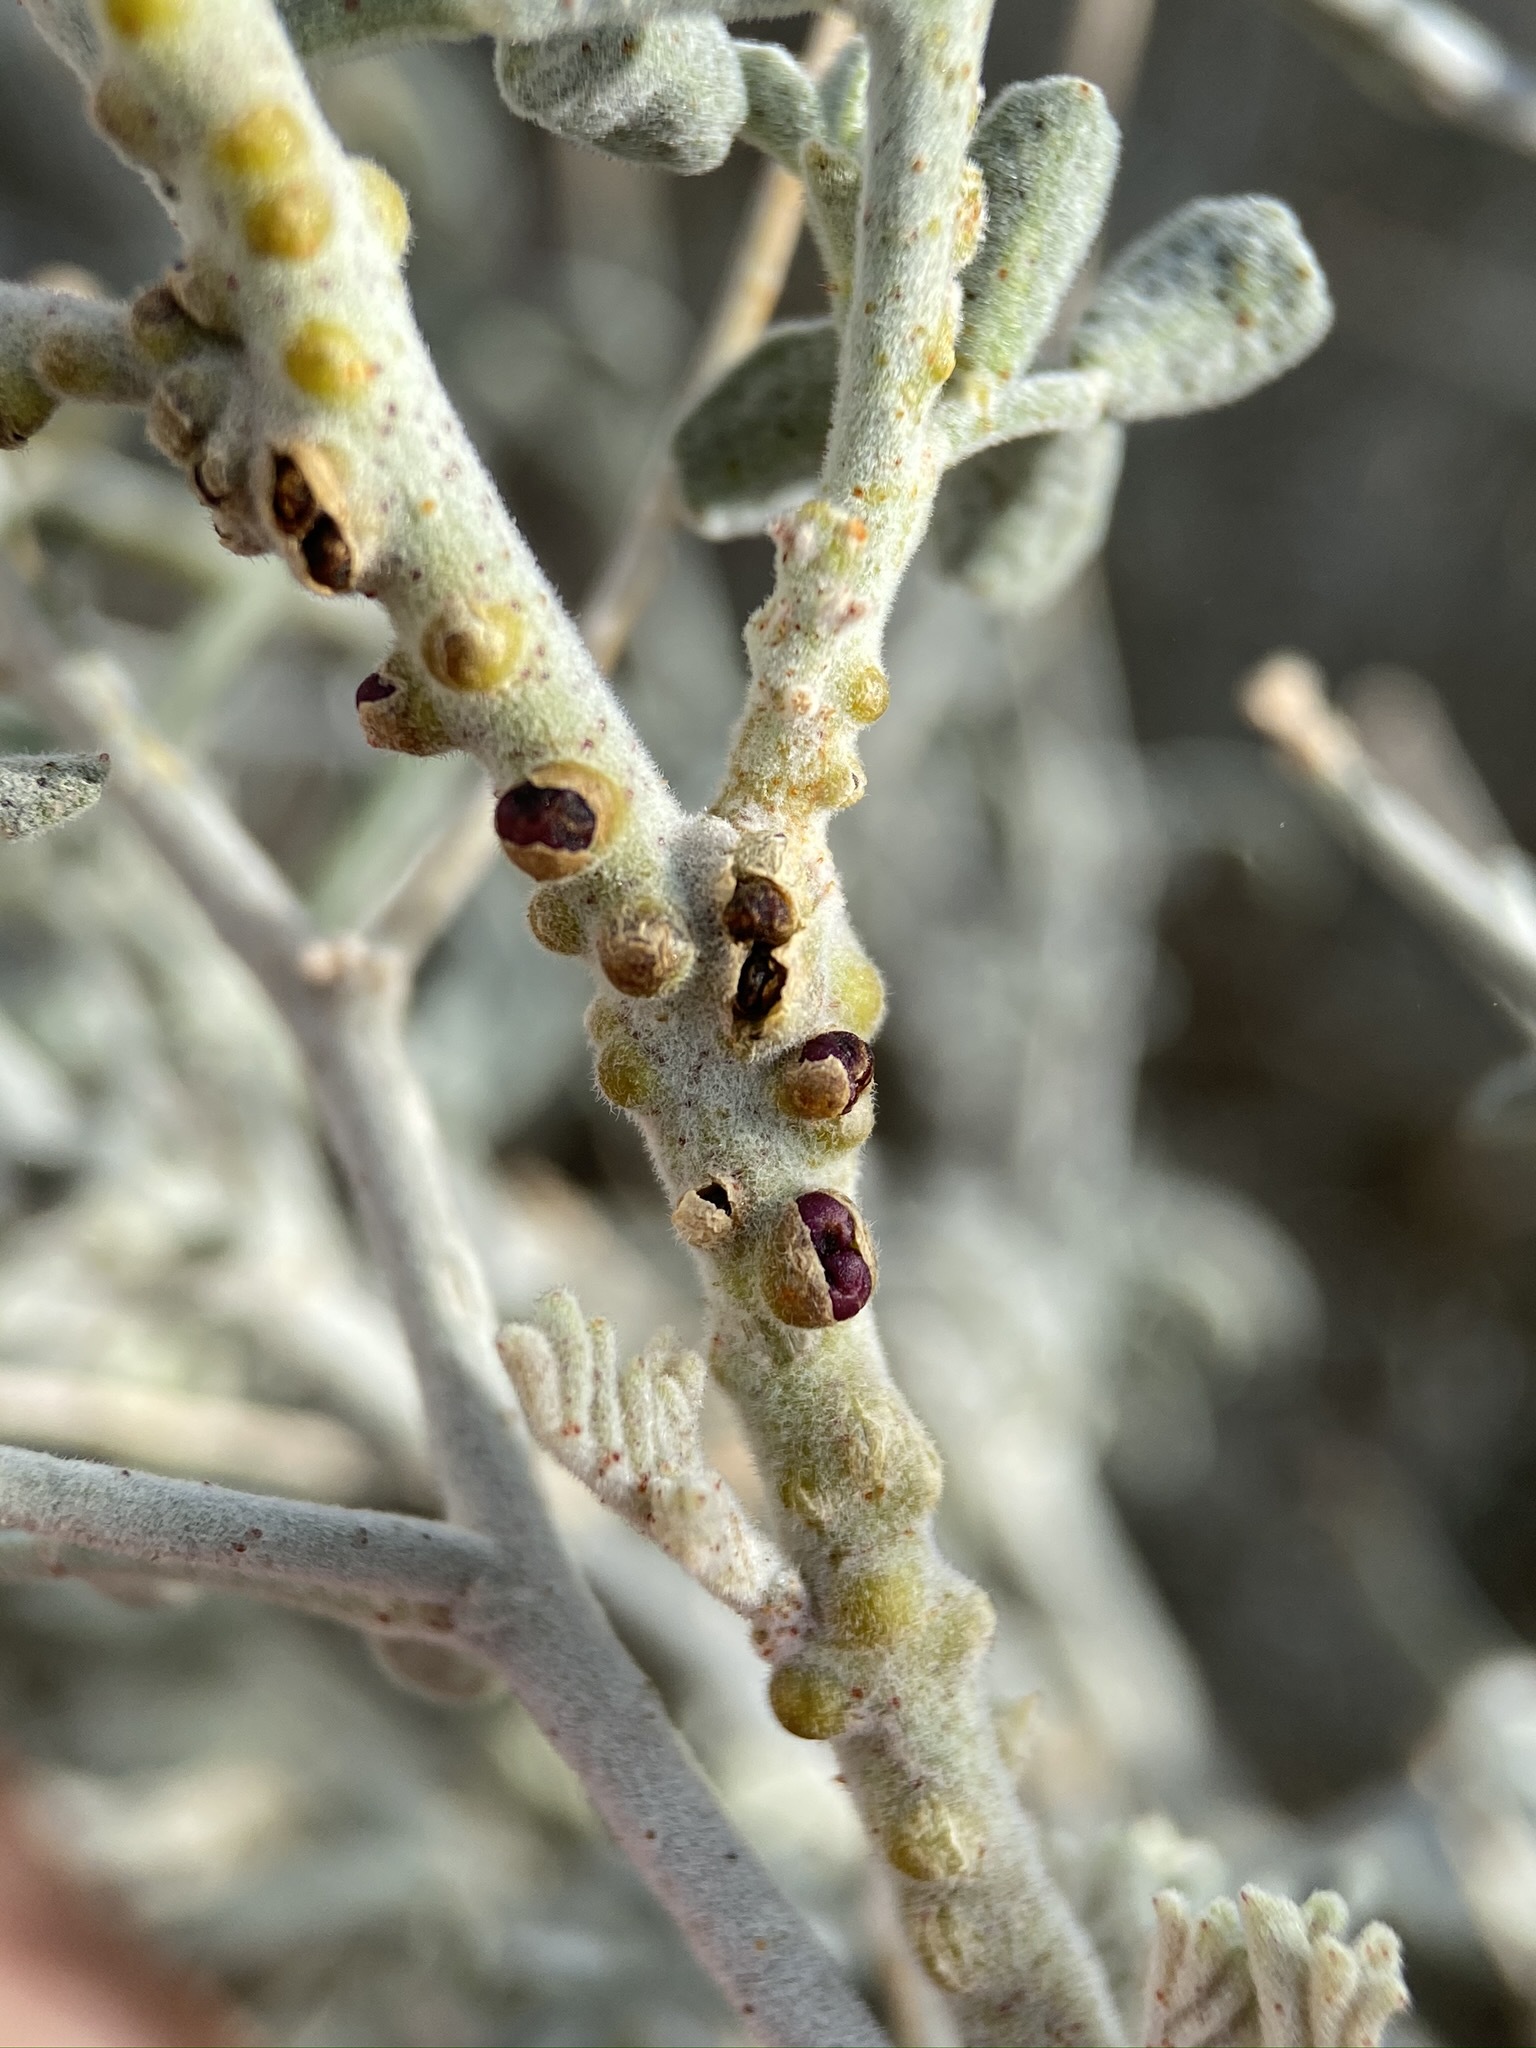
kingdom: Plantae
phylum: Tracheophyta
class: Magnoliopsida
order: Cucurbitales
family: Apodanthaceae
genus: Pilostyles
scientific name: Pilostyles thurberi
